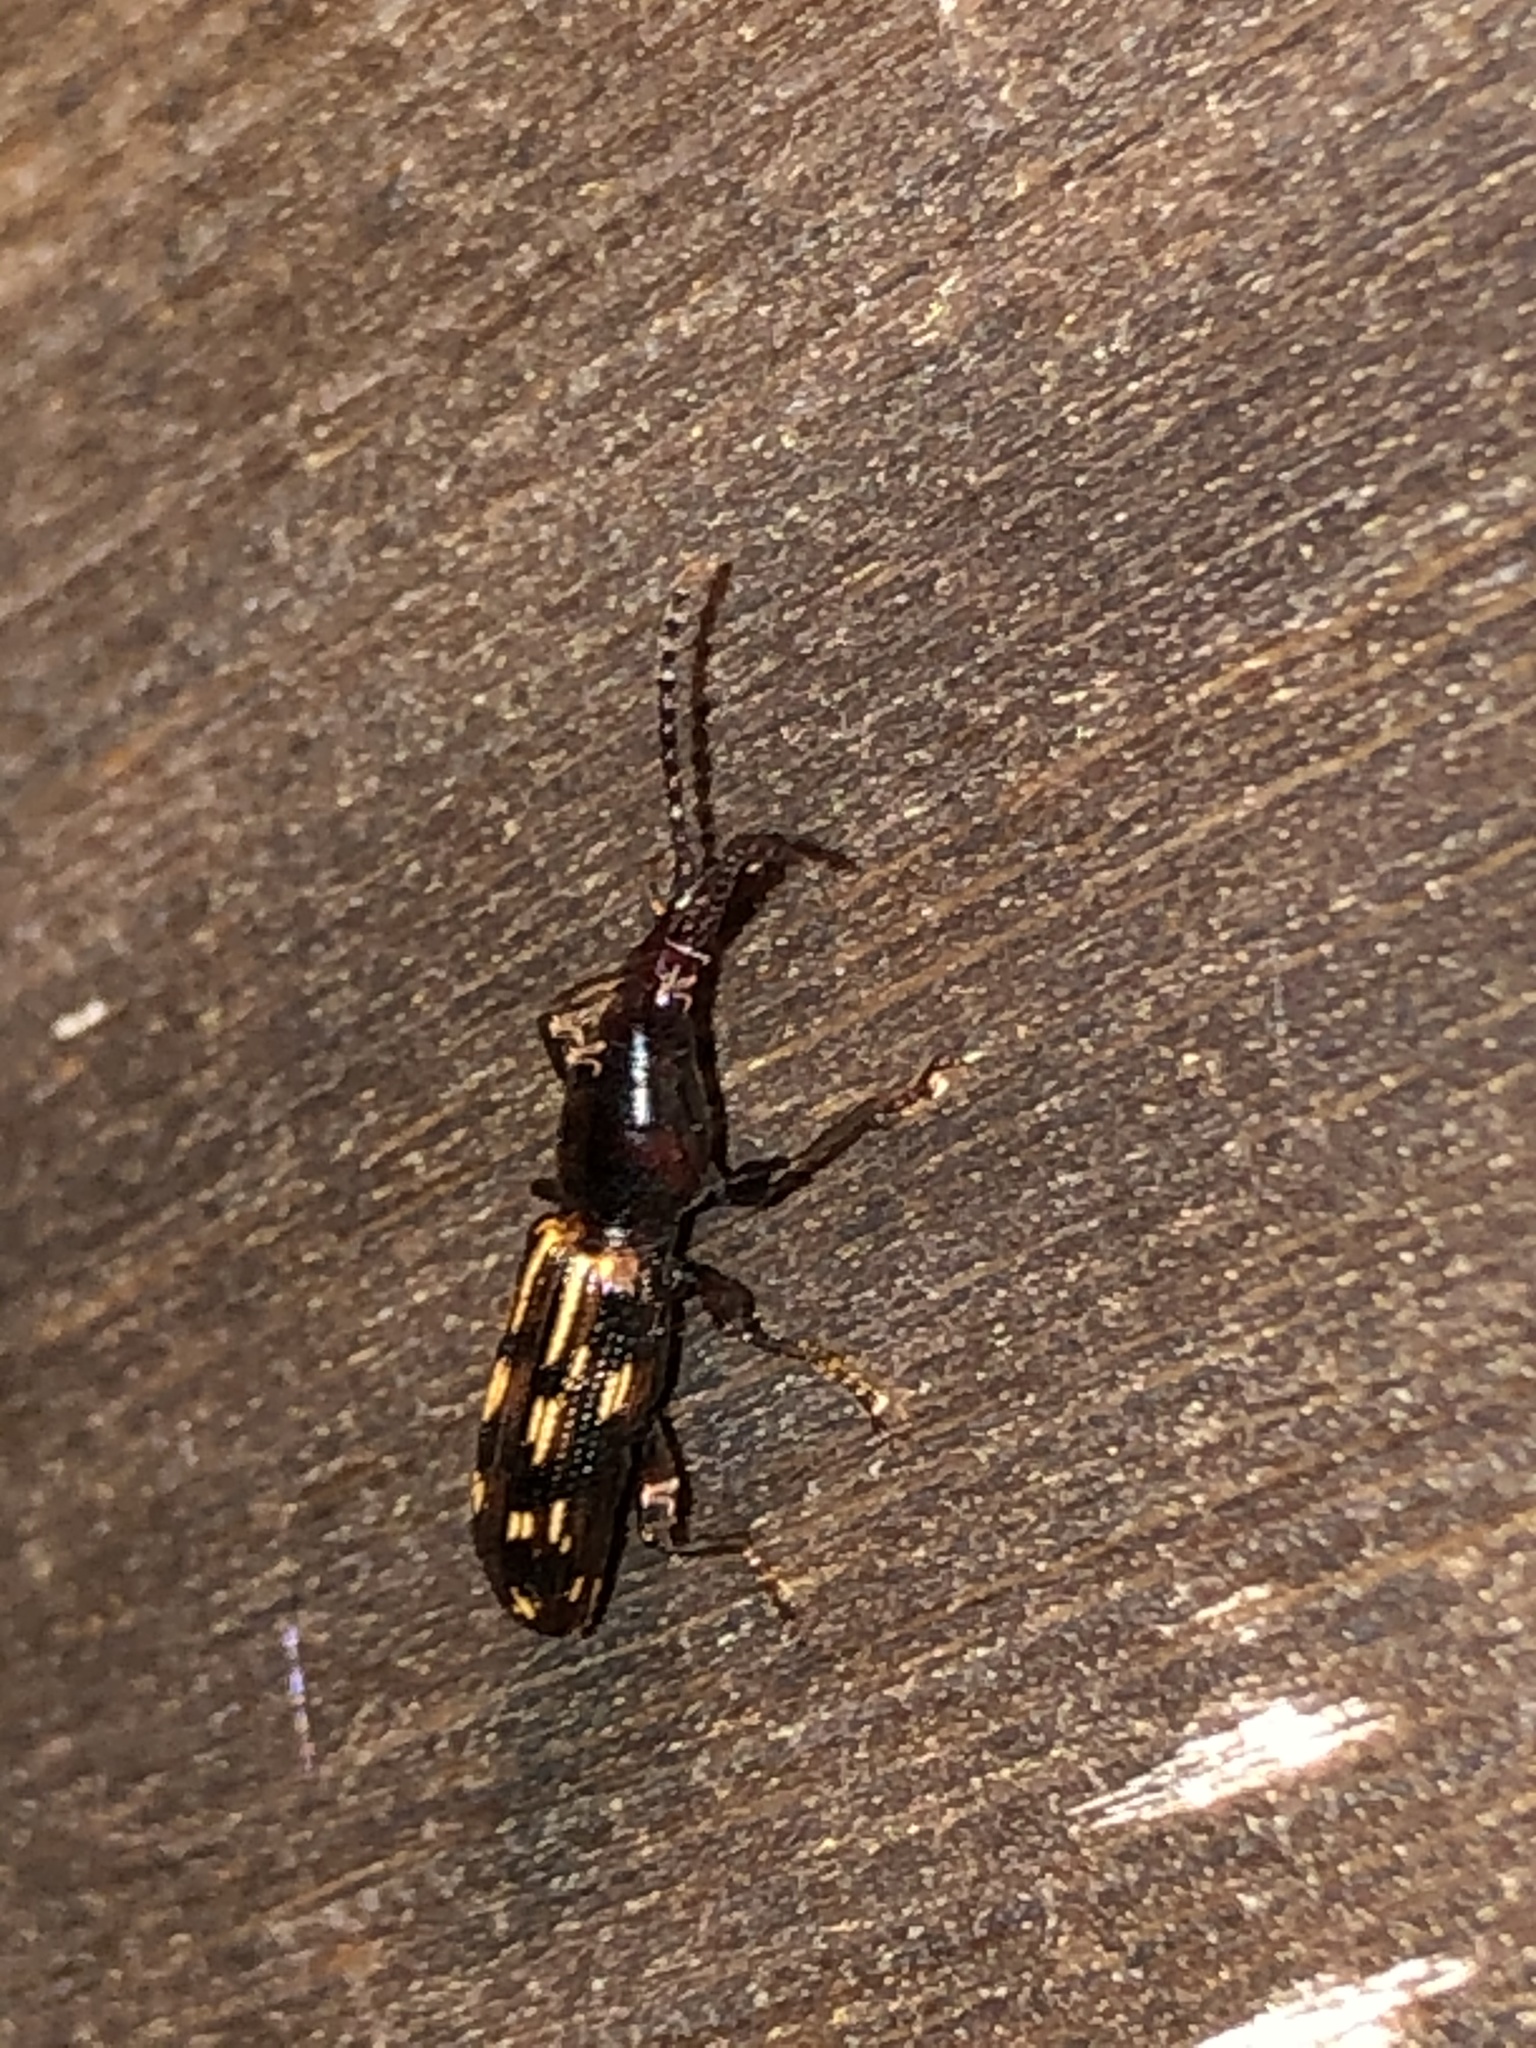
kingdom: Animalia
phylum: Arthropoda
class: Insecta
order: Coleoptera
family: Brentidae
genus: Arrenodes
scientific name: Arrenodes minutus
